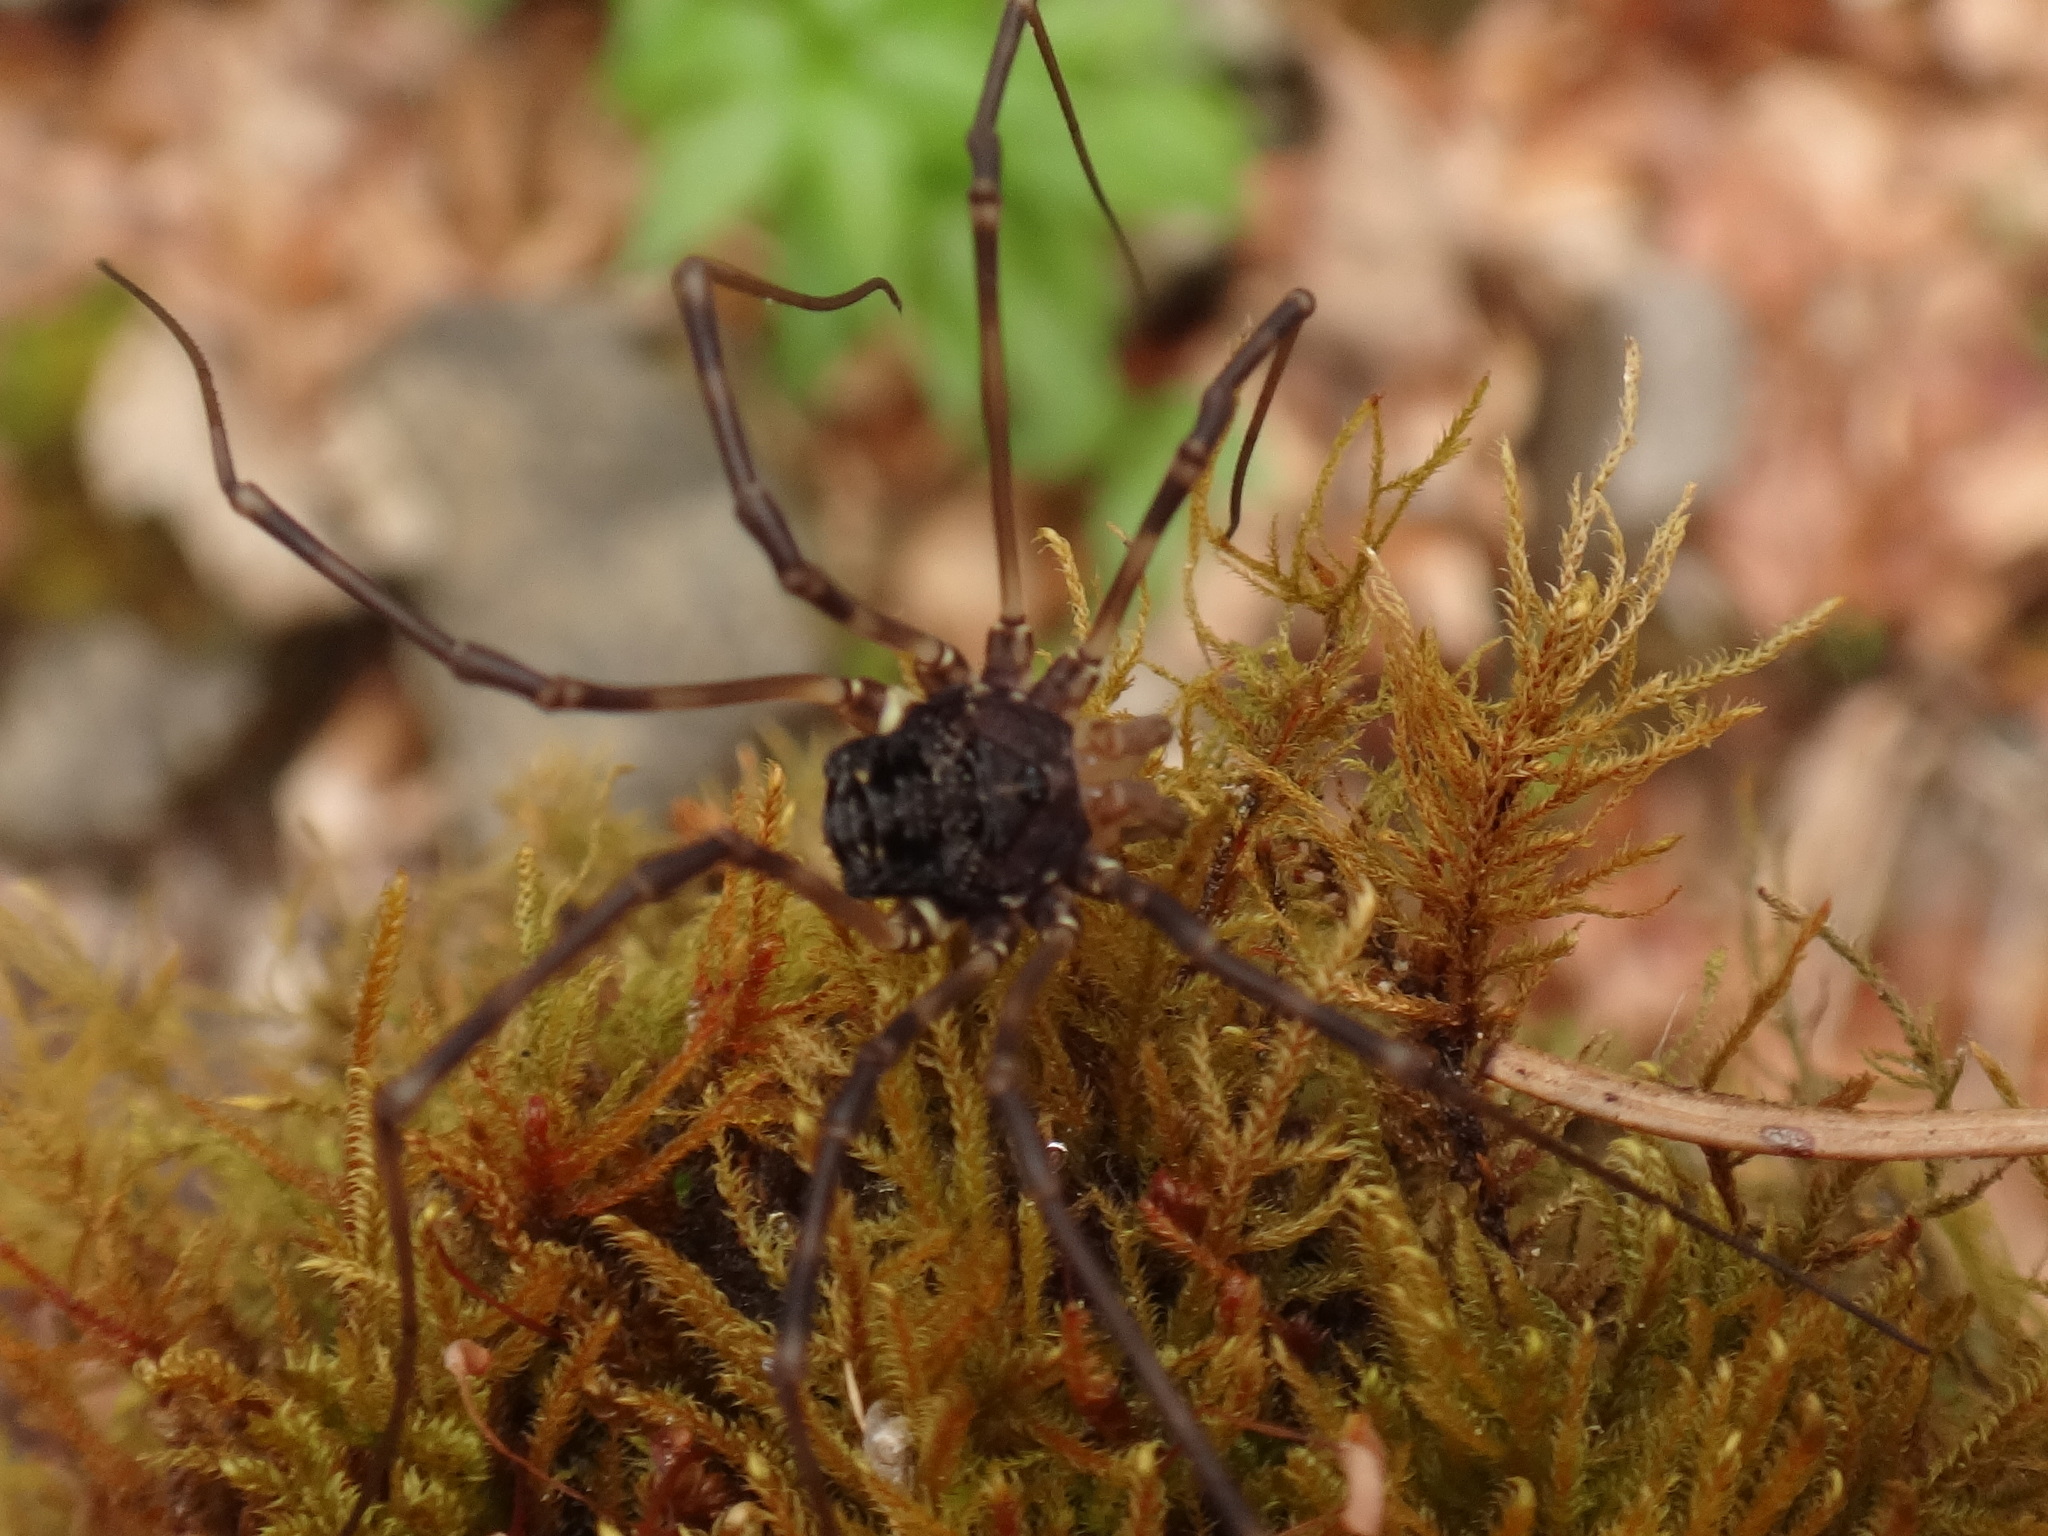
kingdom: Animalia
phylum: Arthropoda
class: Arachnida
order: Opiliones
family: Sclerosomatidae
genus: Gyas
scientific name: Gyas titanus
